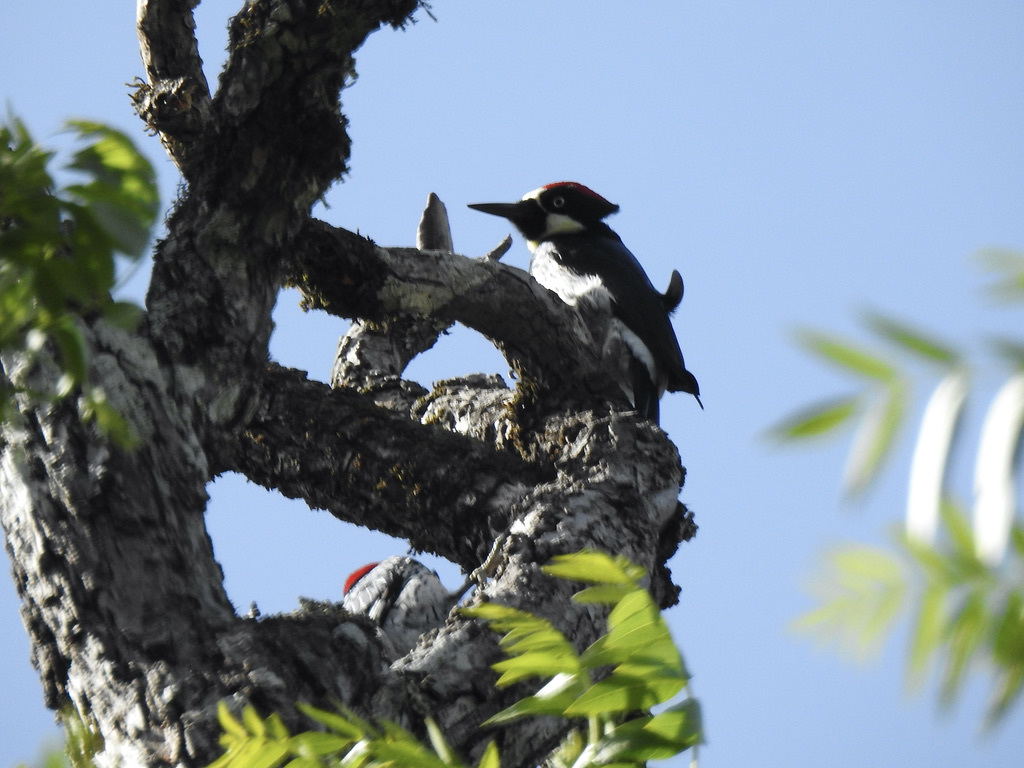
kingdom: Animalia
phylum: Chordata
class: Aves
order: Piciformes
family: Picidae
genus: Melanerpes
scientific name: Melanerpes formicivorus
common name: Acorn woodpecker
